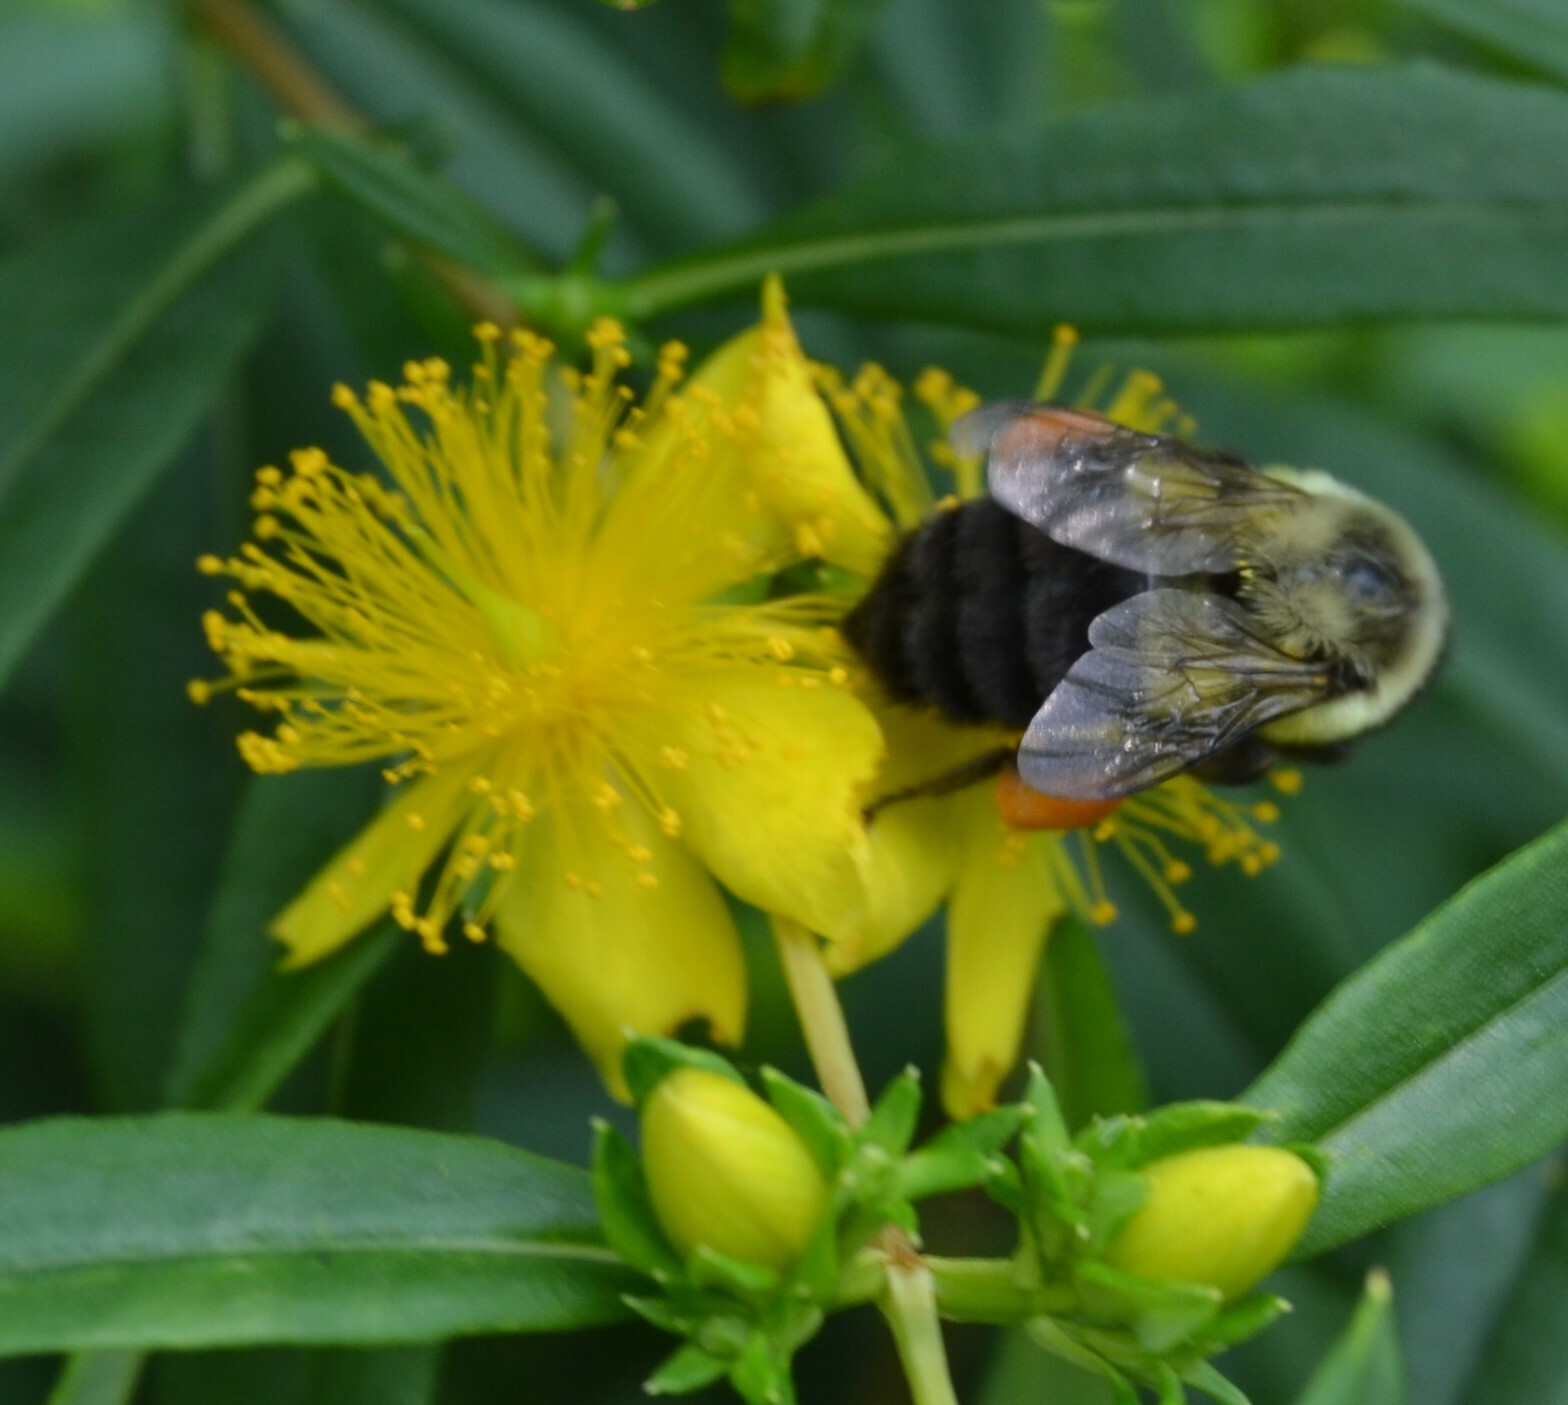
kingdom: Animalia
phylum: Arthropoda
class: Insecta
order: Hymenoptera
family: Apidae
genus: Bombus
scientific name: Bombus impatiens
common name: Common eastern bumble bee
